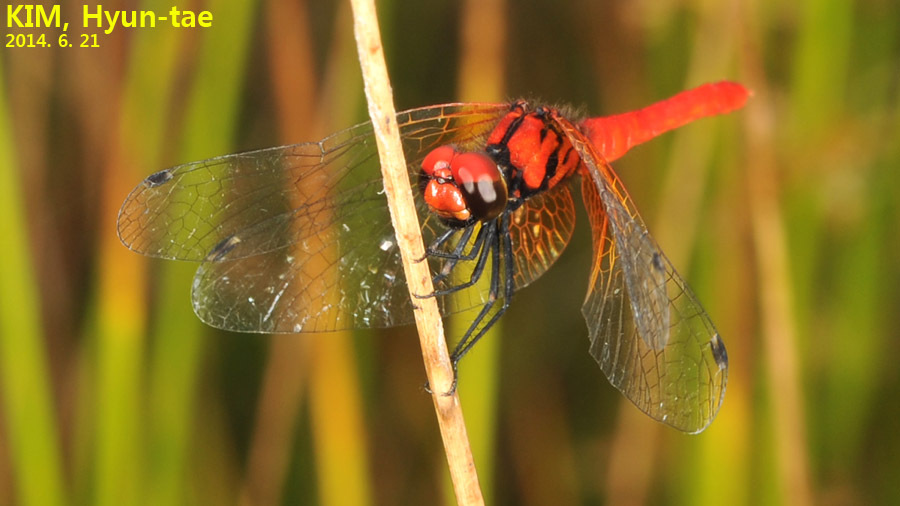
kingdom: Animalia
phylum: Arthropoda
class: Insecta
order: Odonata
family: Libellulidae
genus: Nannophya
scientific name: Nannophya pygmaea
